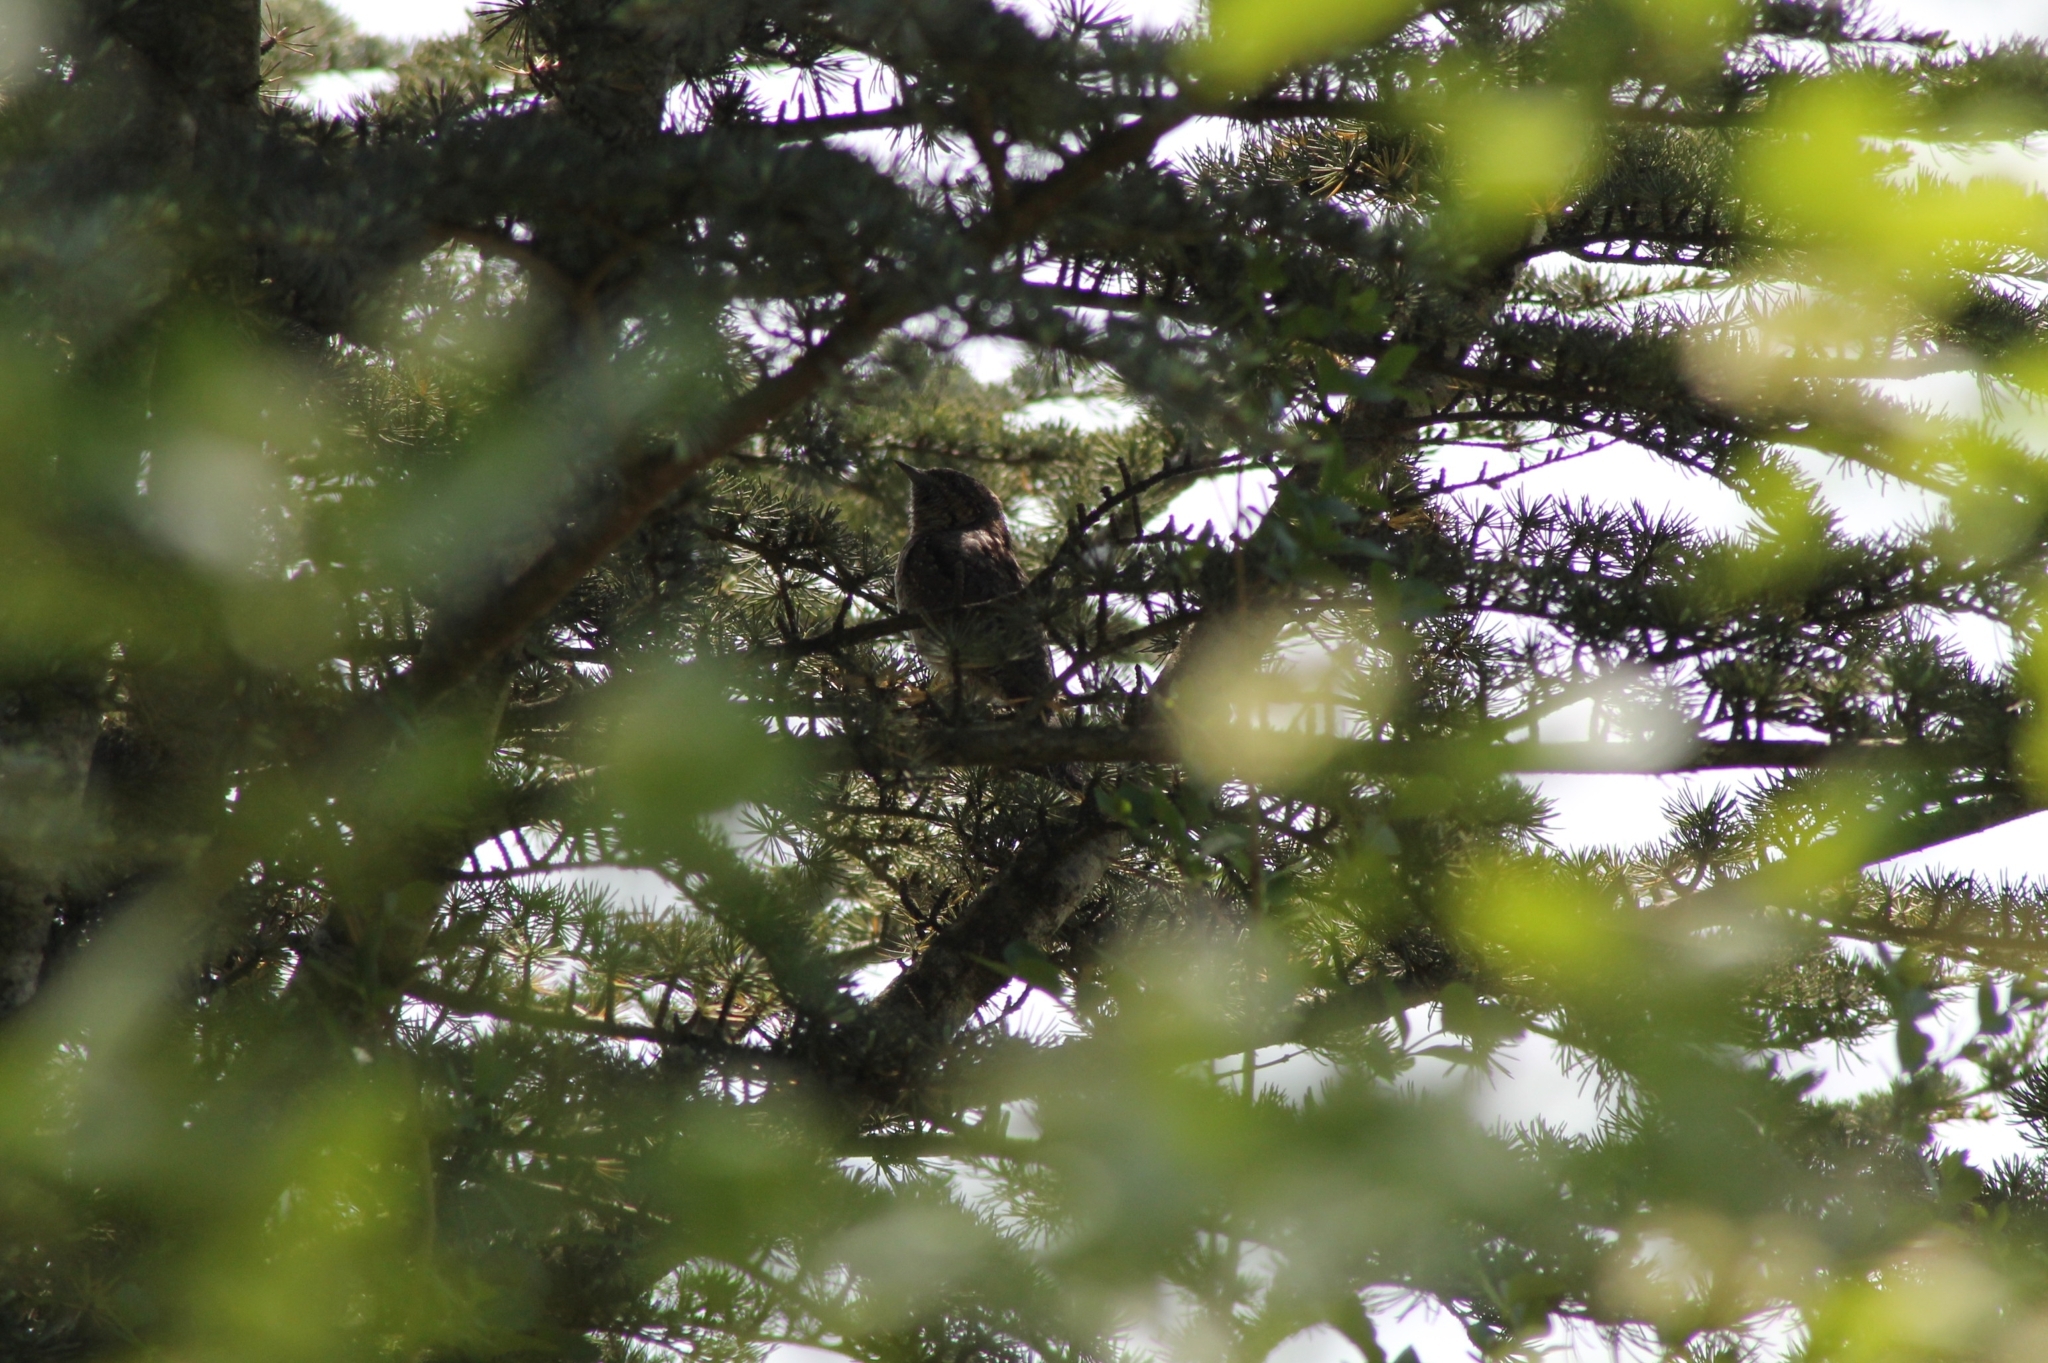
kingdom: Animalia
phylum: Chordata
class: Aves
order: Piciformes
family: Picidae
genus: Jynx
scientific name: Jynx torquilla
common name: Eurasian wryneck
